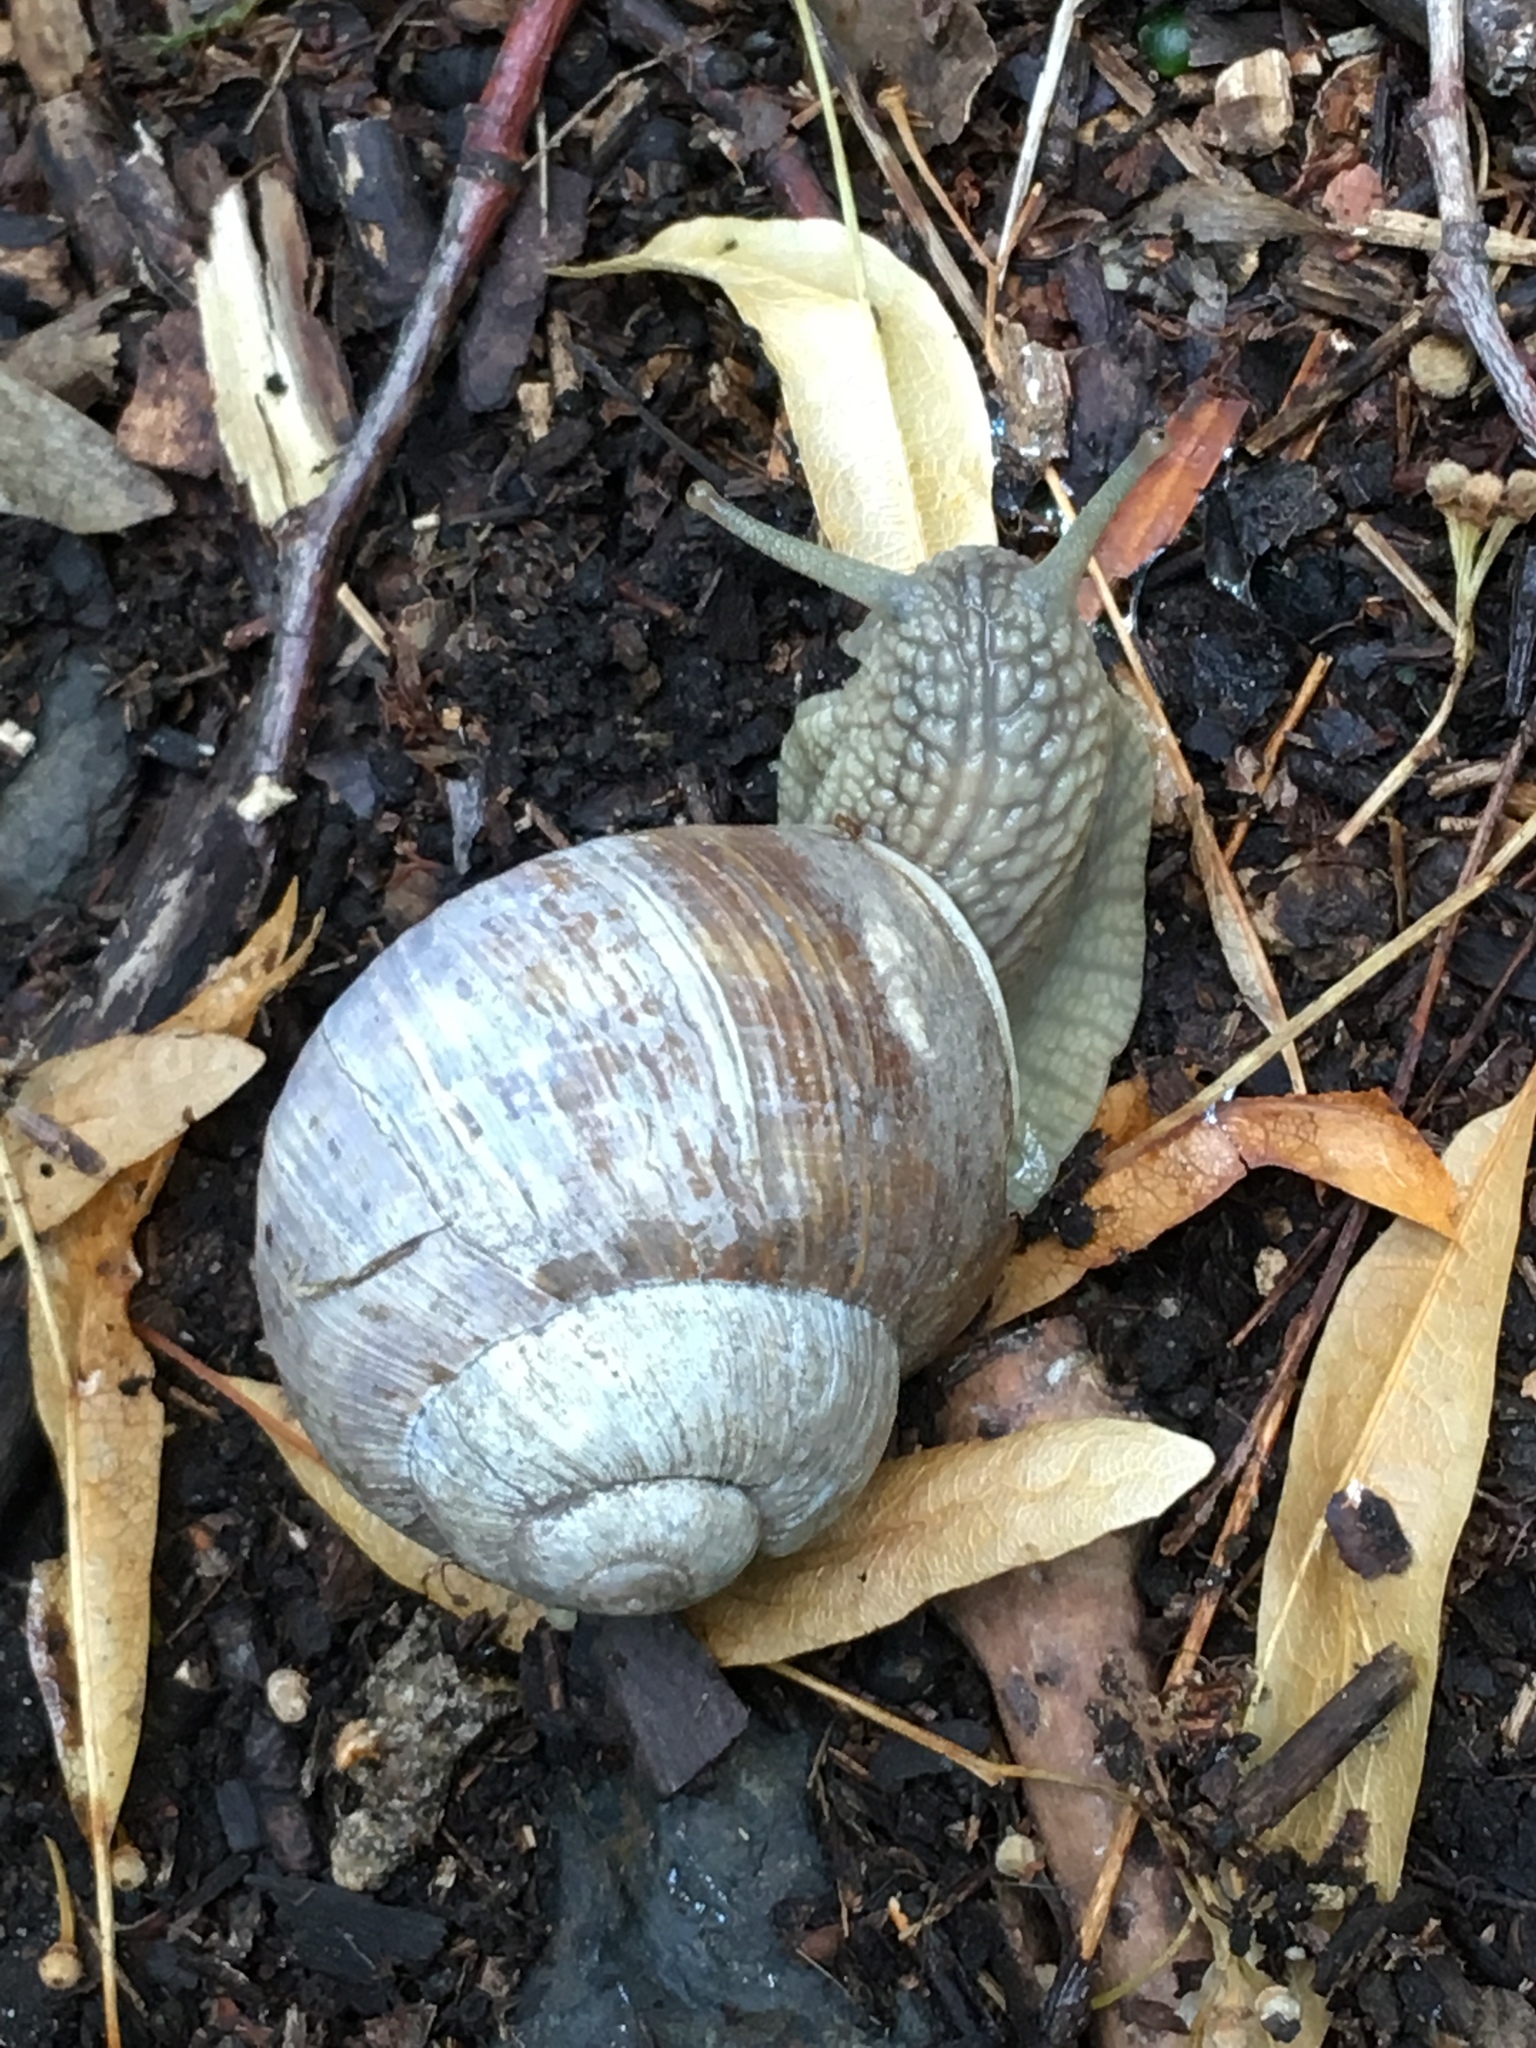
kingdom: Animalia
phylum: Mollusca
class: Gastropoda
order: Stylommatophora
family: Helicidae
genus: Helix
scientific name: Helix pomatia
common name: Roman snail
